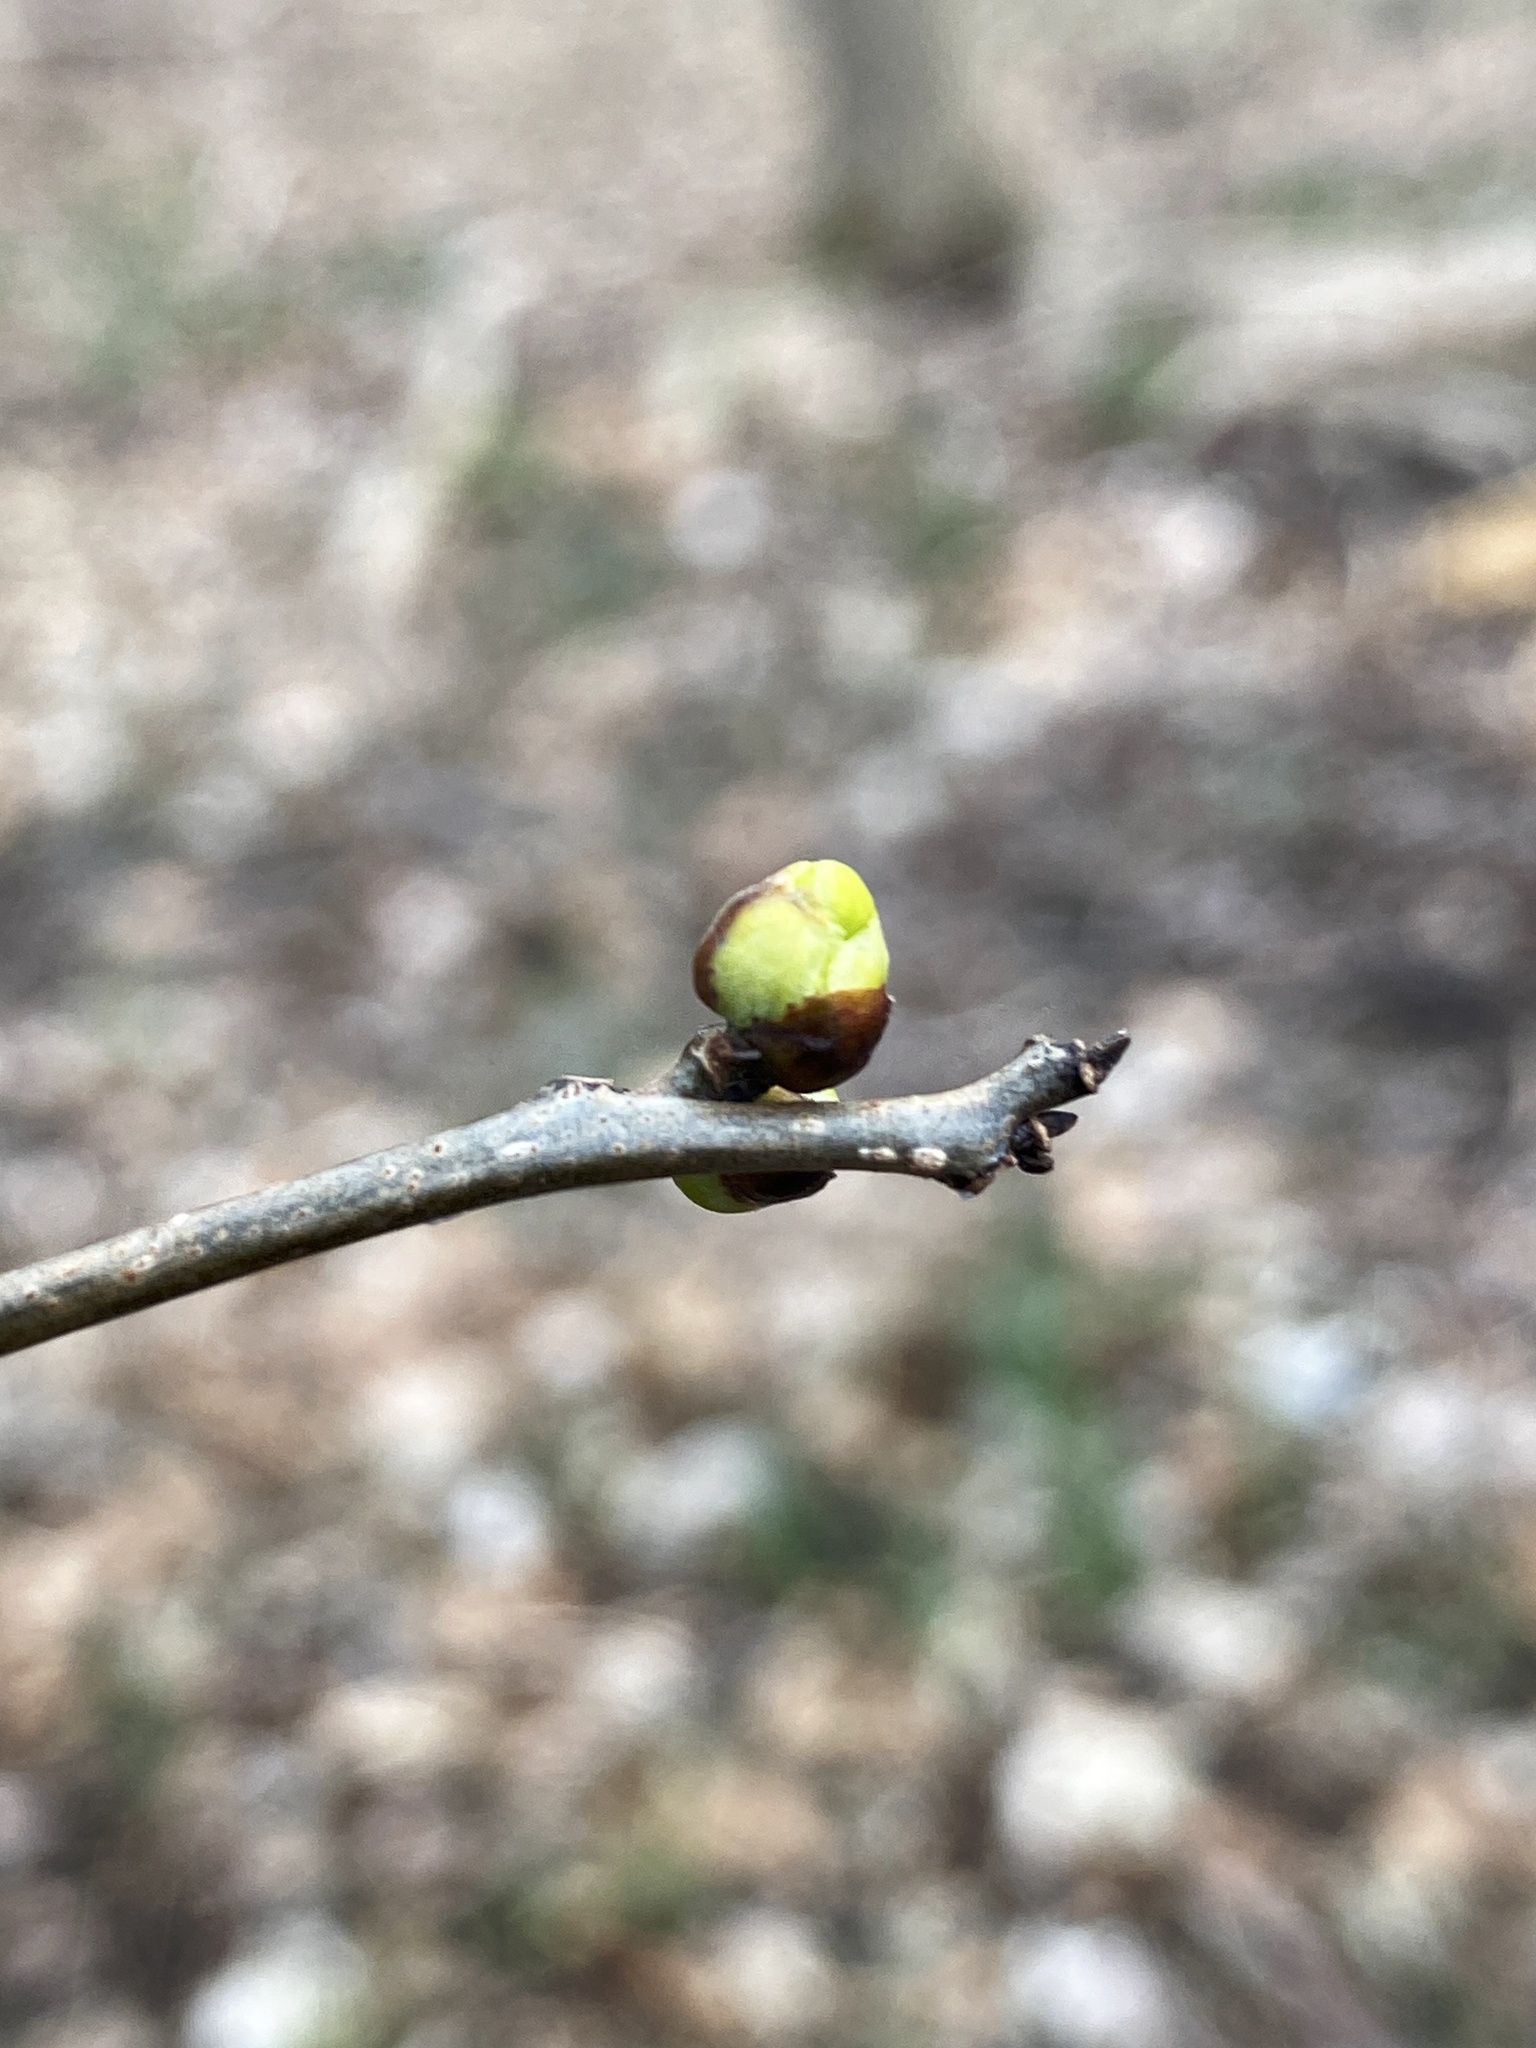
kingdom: Plantae
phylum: Tracheophyta
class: Magnoliopsida
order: Laurales
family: Lauraceae
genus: Lindera
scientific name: Lindera benzoin
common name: Spicebush
